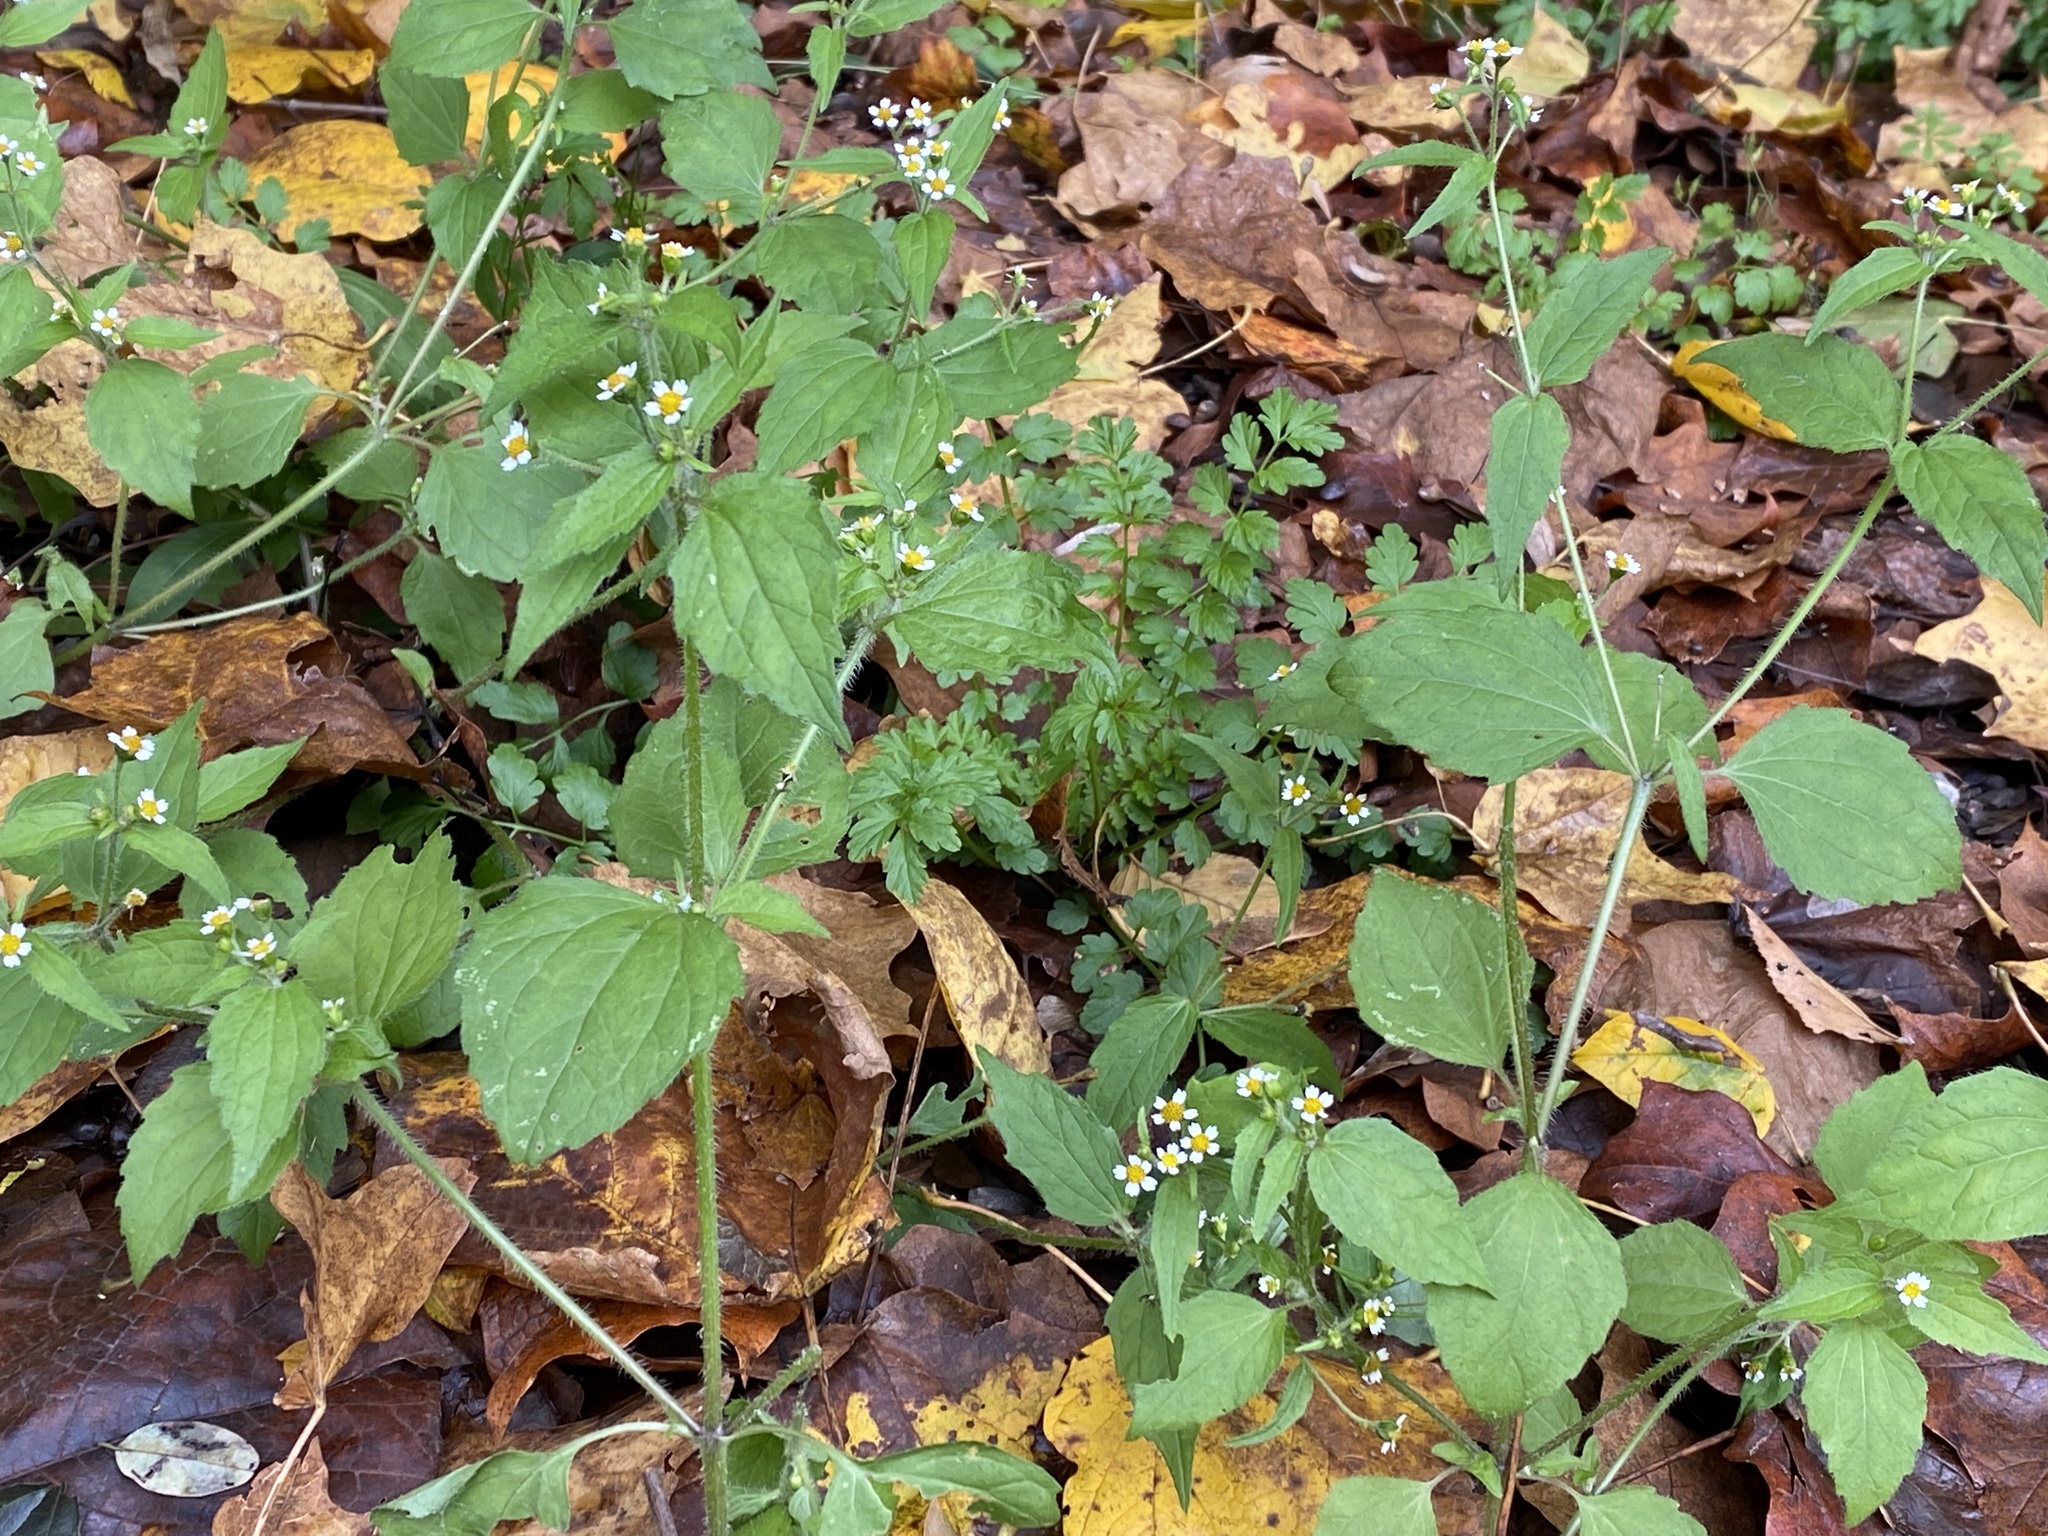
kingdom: Plantae
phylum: Tracheophyta
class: Magnoliopsida
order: Asterales
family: Asteraceae
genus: Galinsoga
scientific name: Galinsoga quadriradiata
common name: Shaggy soldier
